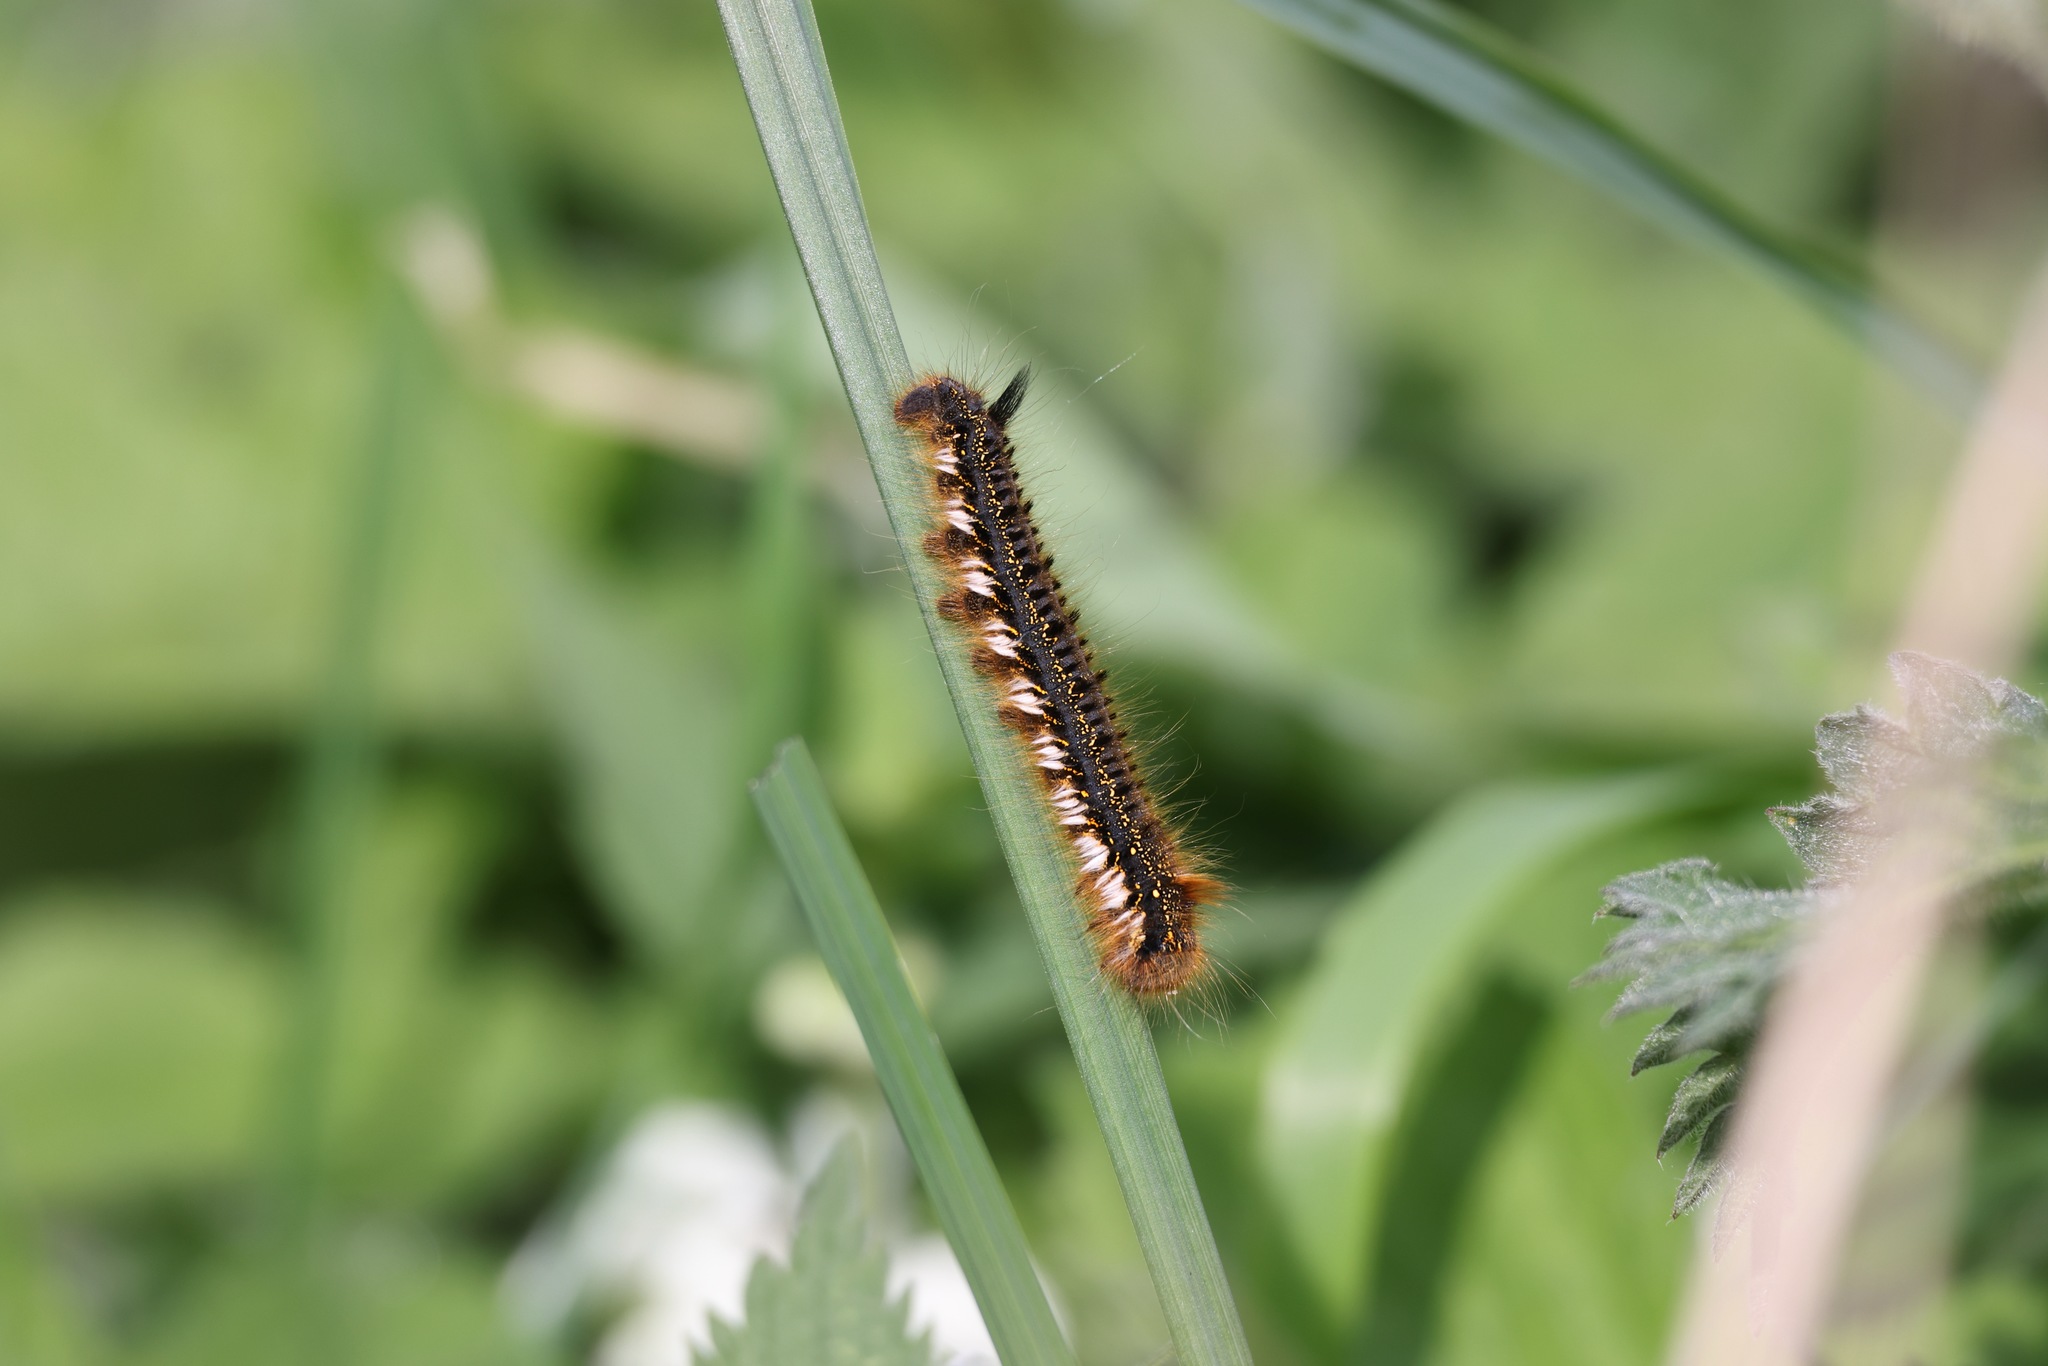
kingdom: Animalia
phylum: Arthropoda
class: Insecta
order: Lepidoptera
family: Lasiocampidae
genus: Euthrix
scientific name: Euthrix potatoria
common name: Drinker
